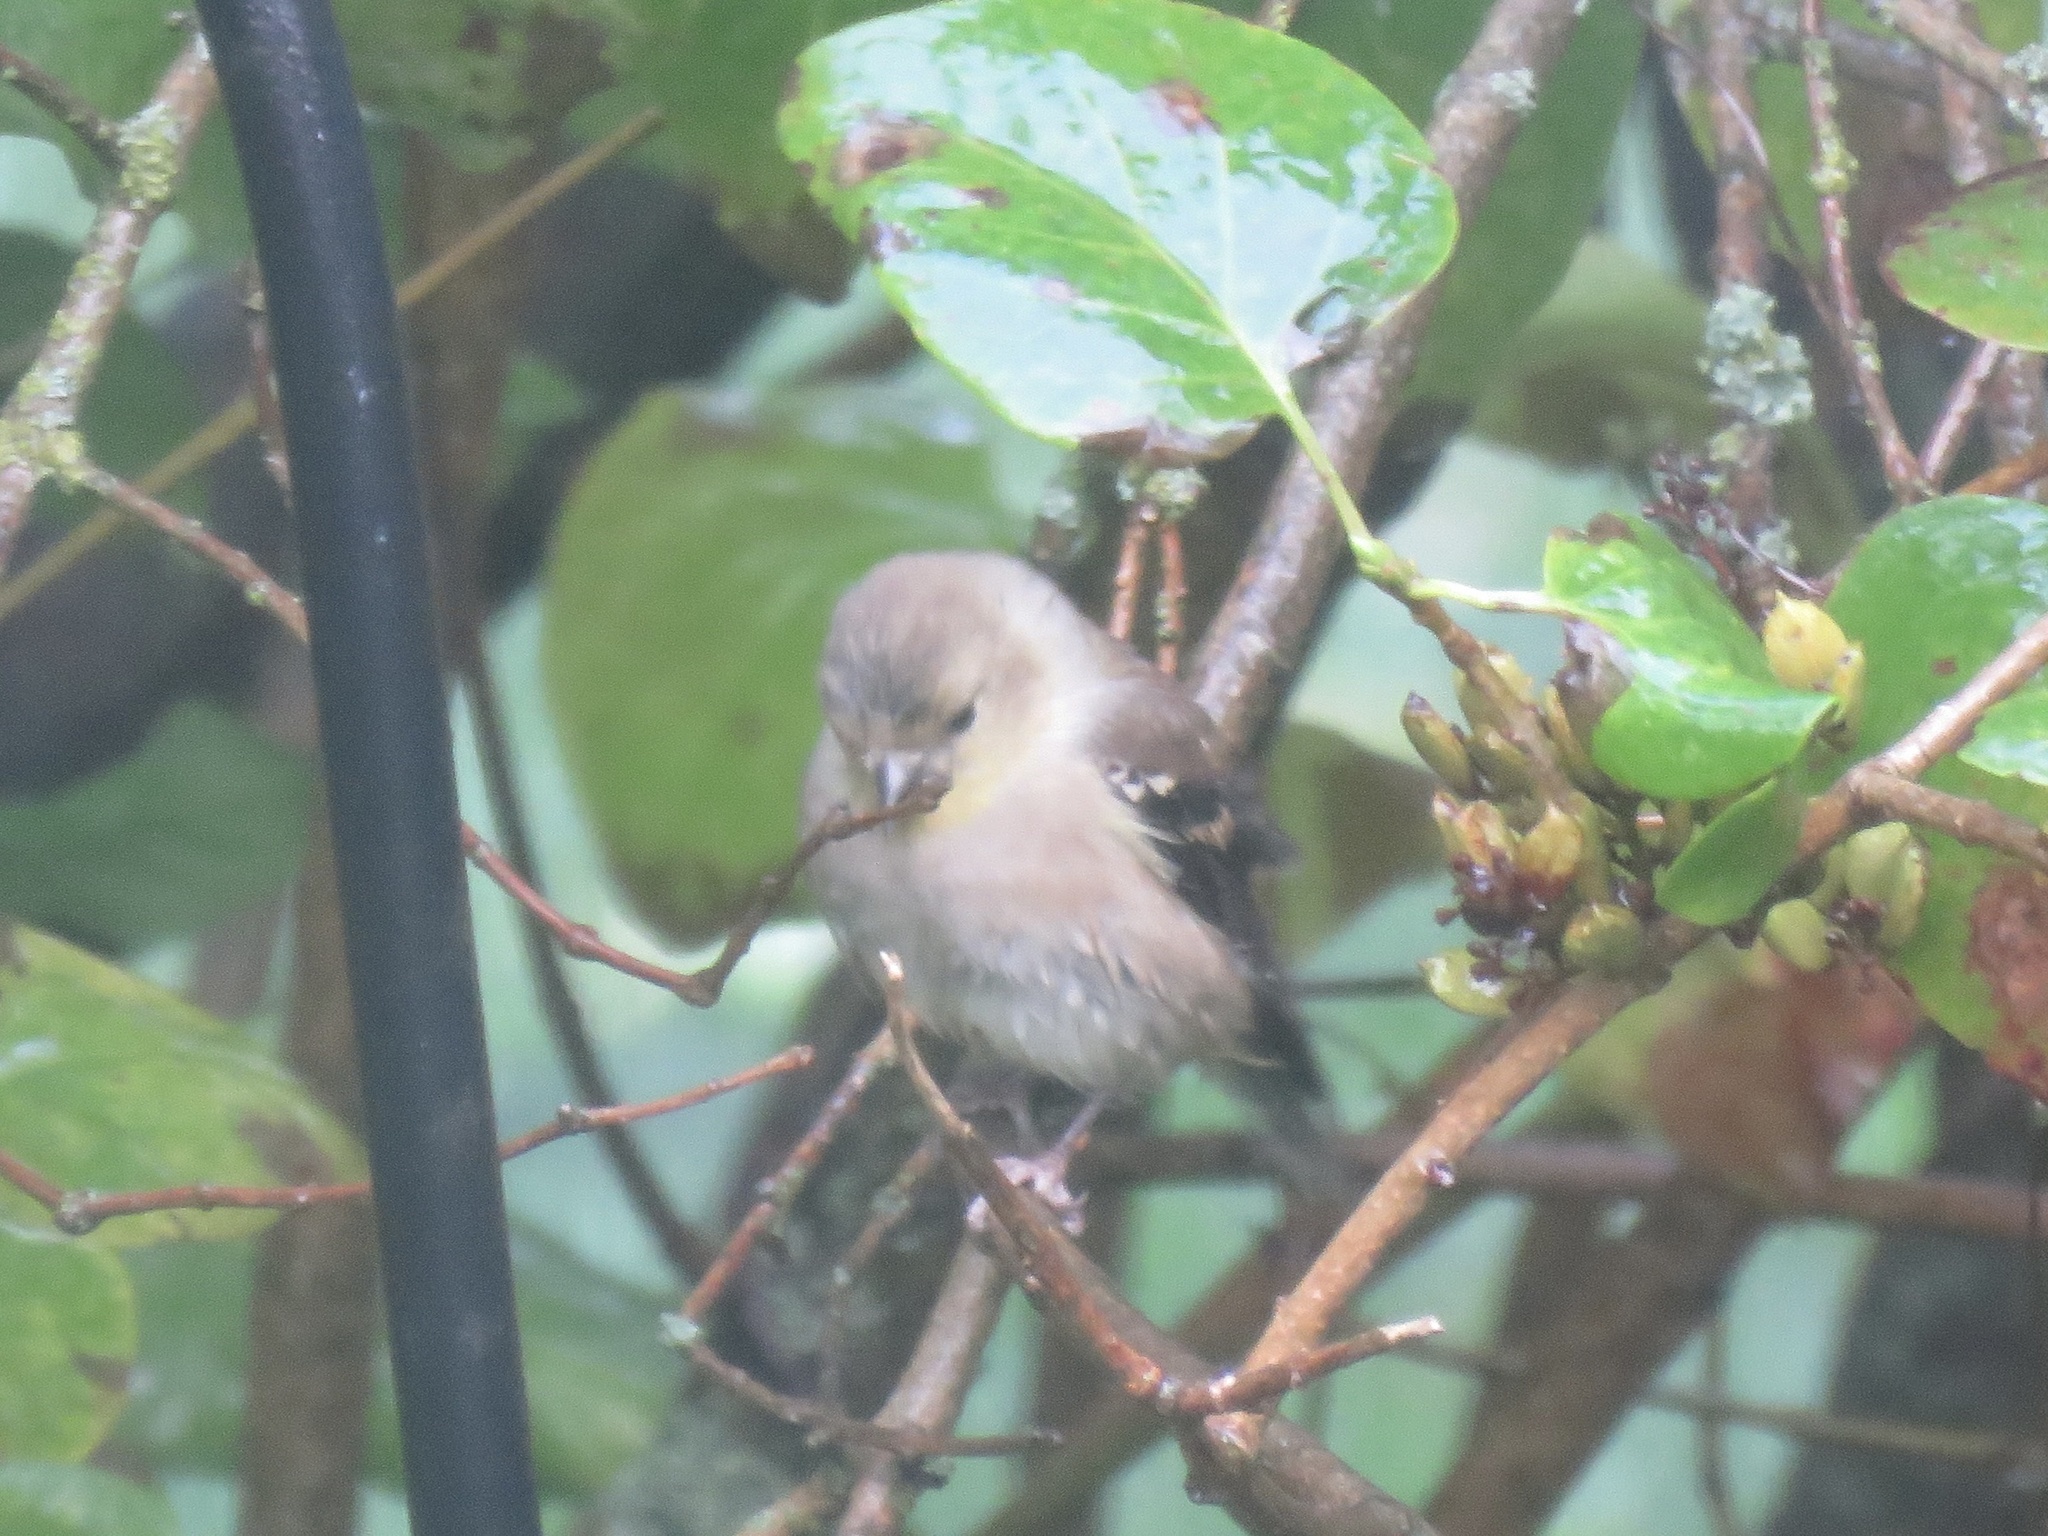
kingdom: Animalia
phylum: Chordata
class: Aves
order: Passeriformes
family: Fringillidae
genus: Spinus
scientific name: Spinus tristis
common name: American goldfinch
